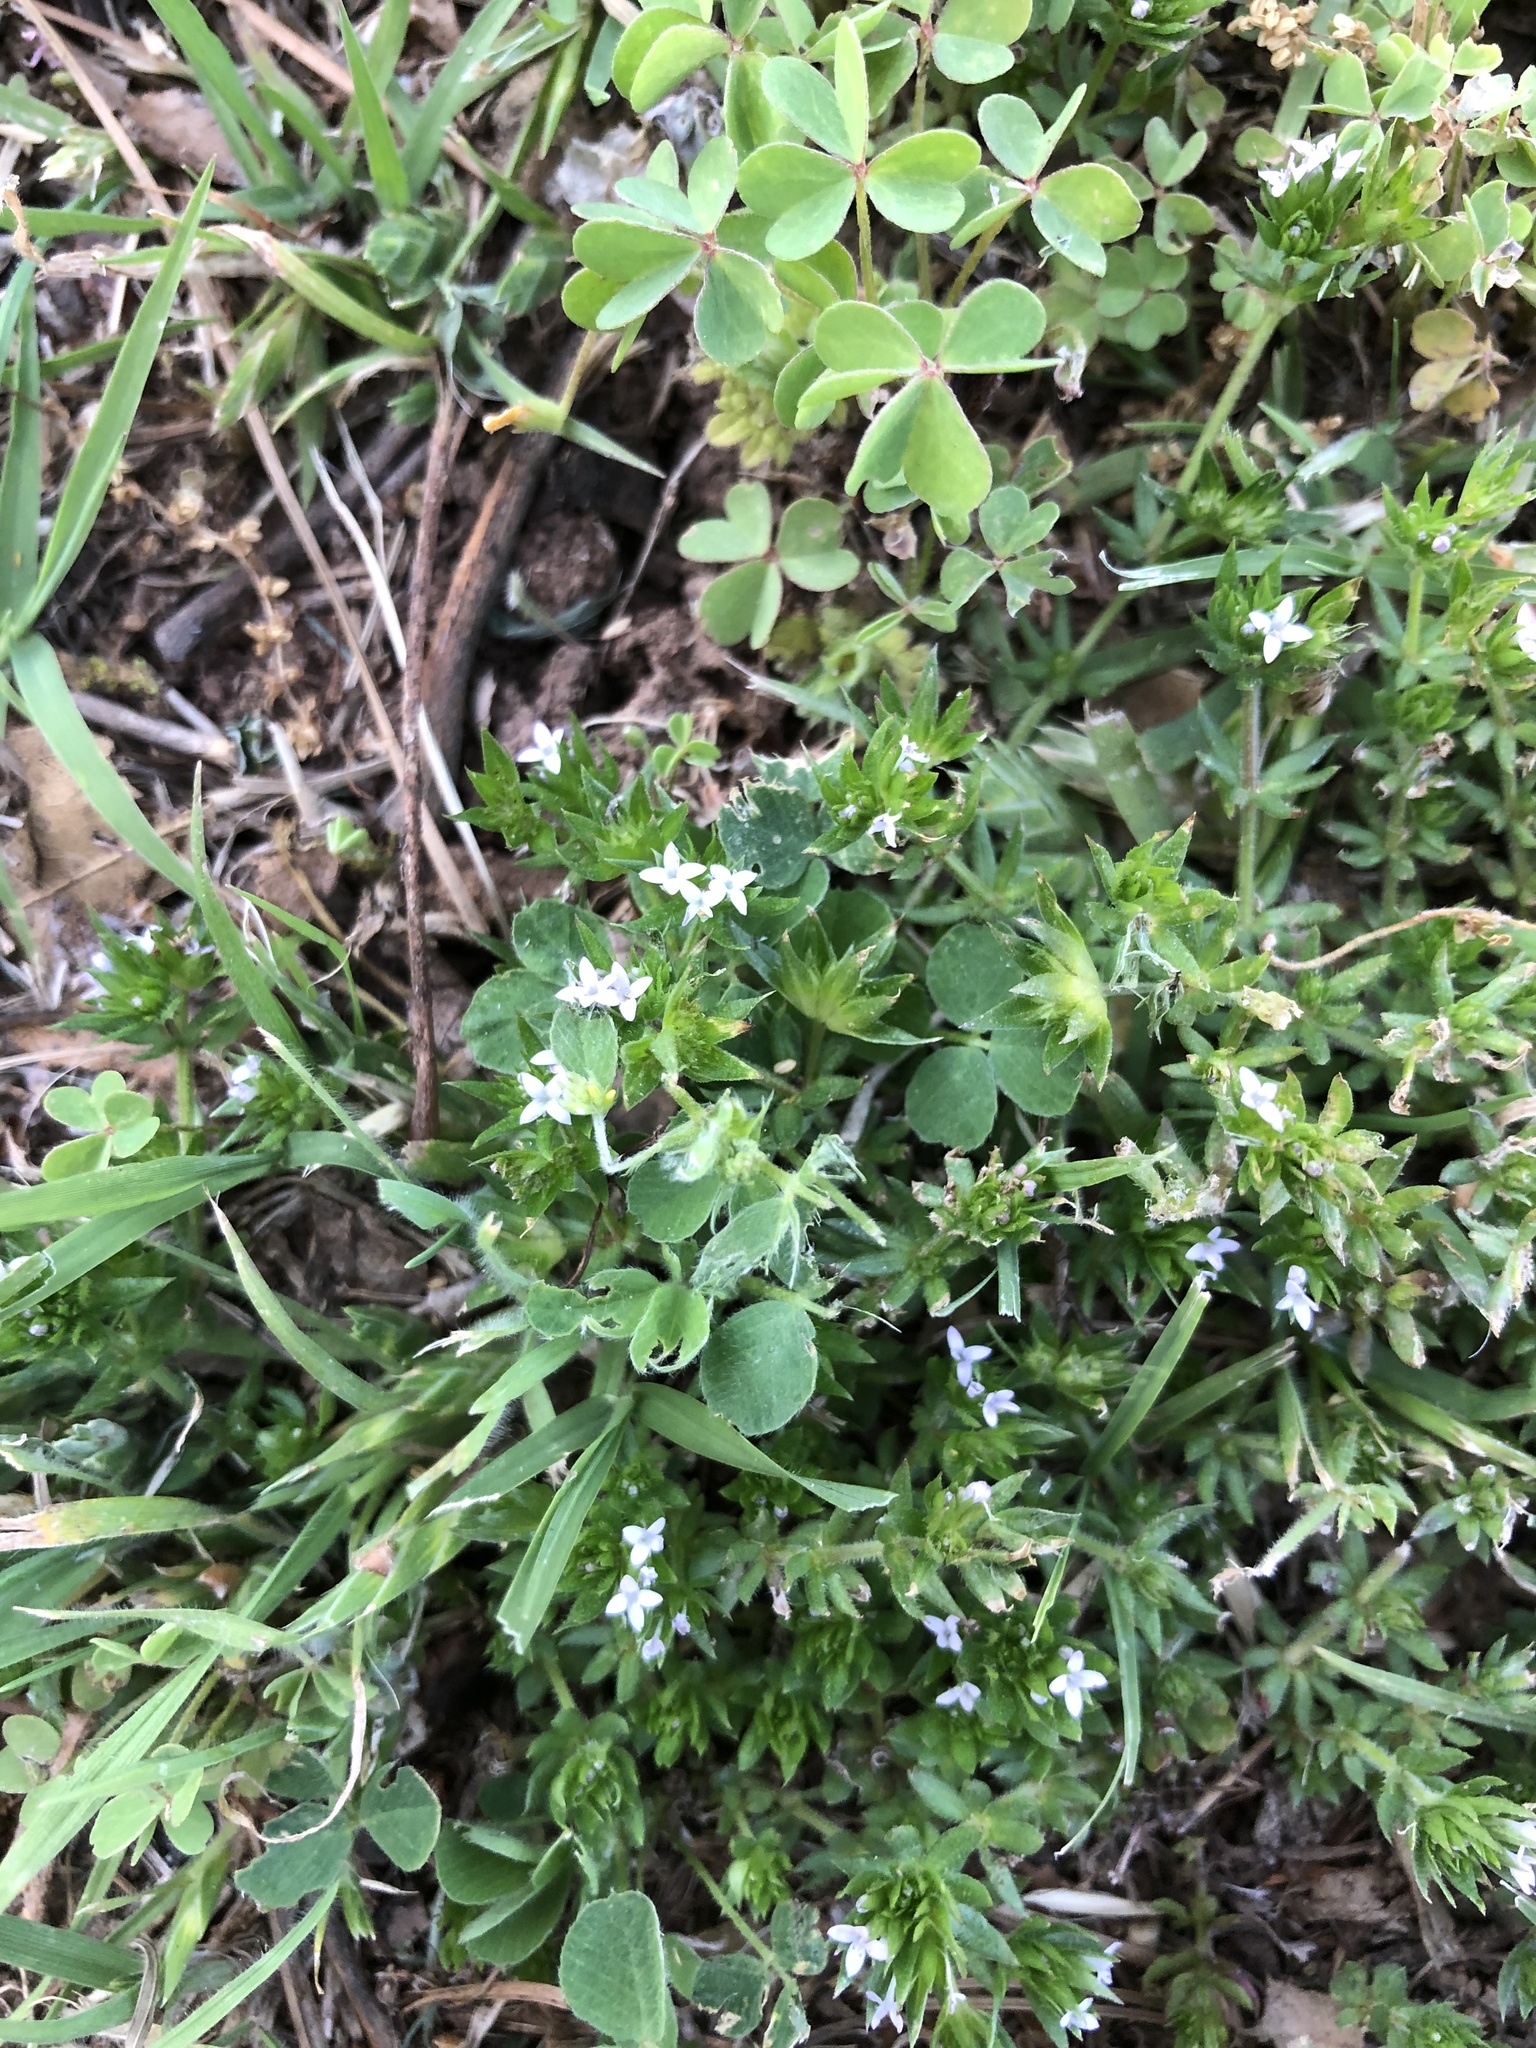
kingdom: Plantae
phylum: Tracheophyta
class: Magnoliopsida
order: Gentianales
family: Rubiaceae
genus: Sherardia
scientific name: Sherardia arvensis
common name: Field madder
